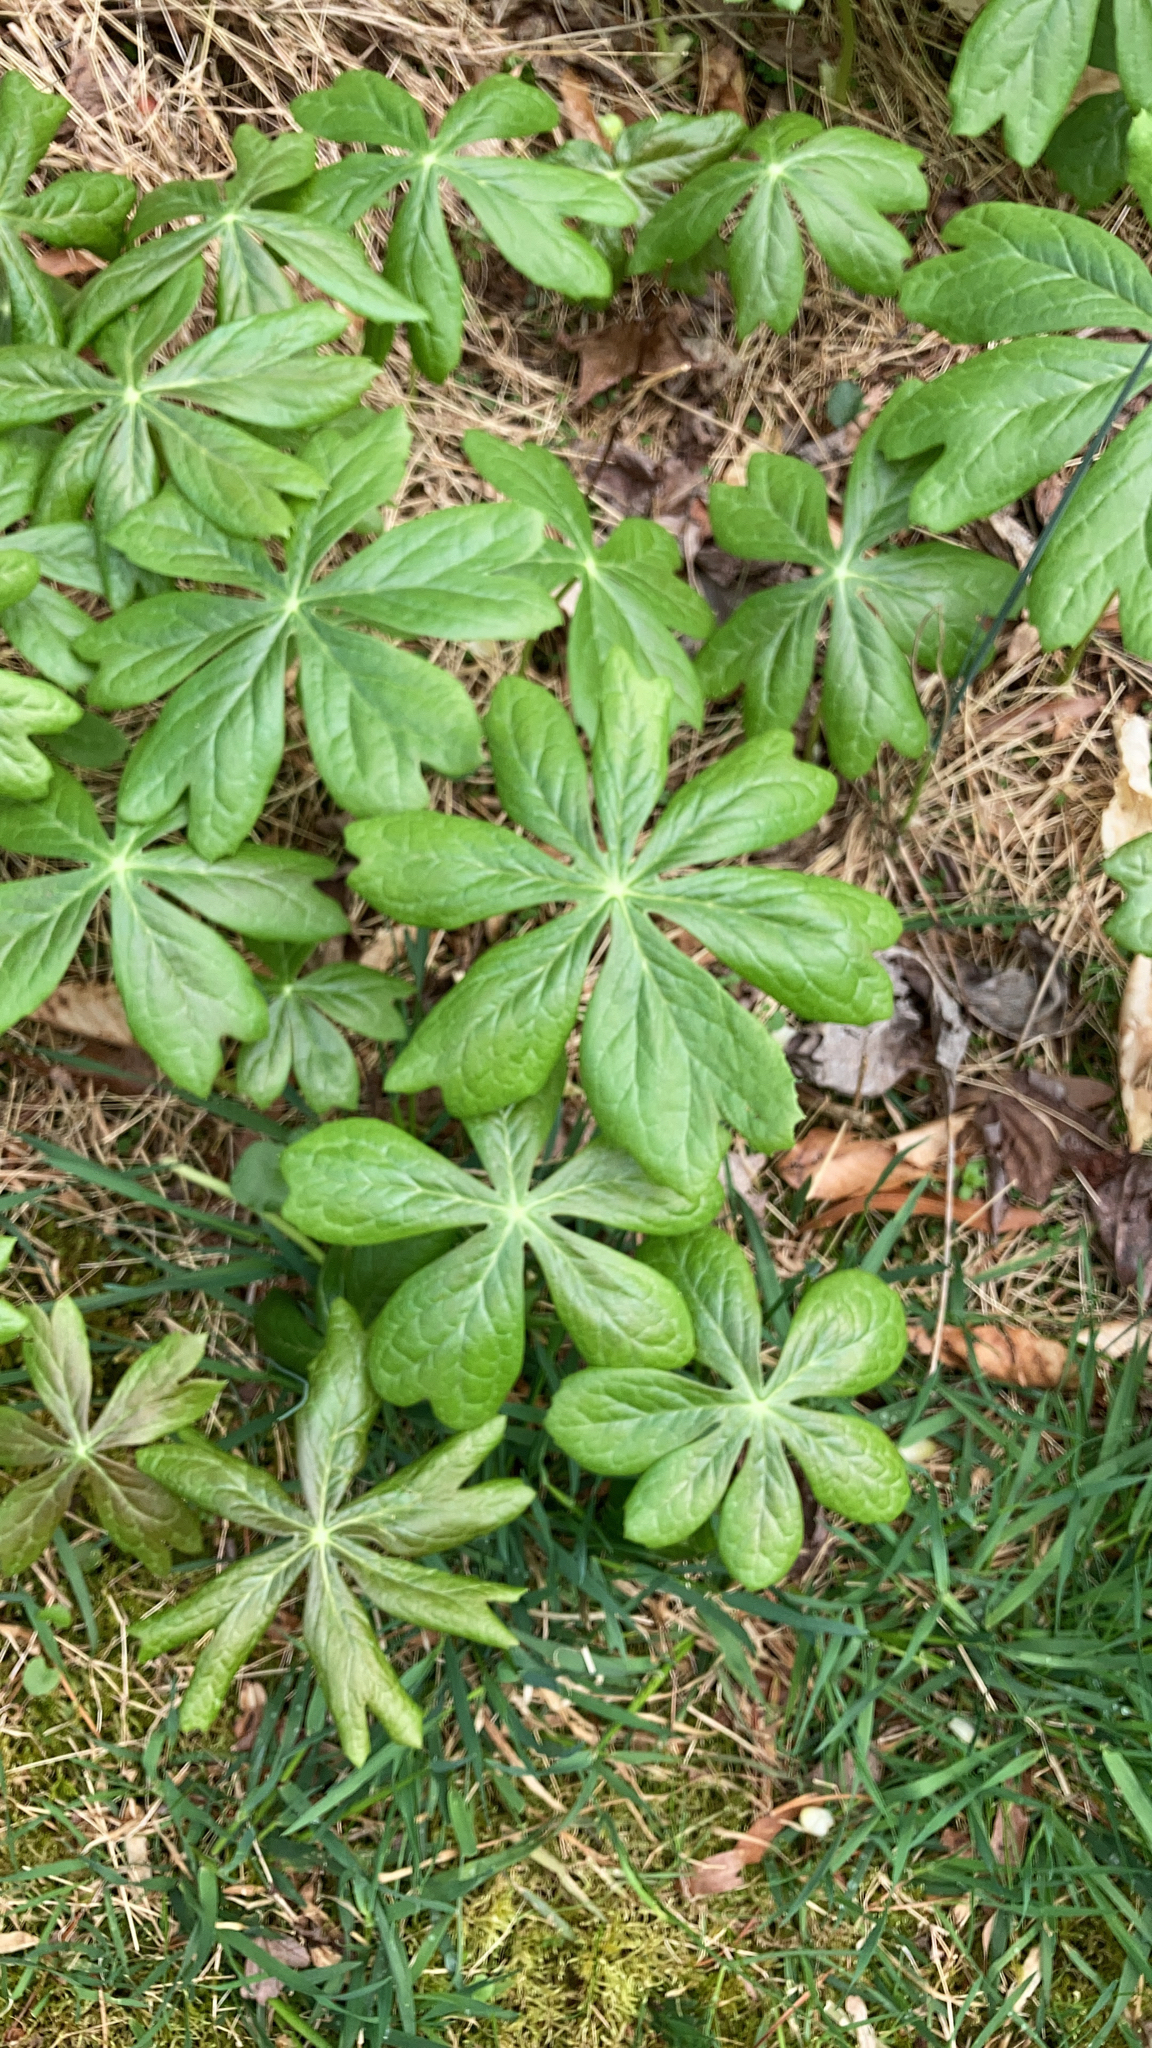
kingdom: Plantae
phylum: Tracheophyta
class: Magnoliopsida
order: Ranunculales
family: Berberidaceae
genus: Podophyllum
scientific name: Podophyllum peltatum
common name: Wild mandrake
